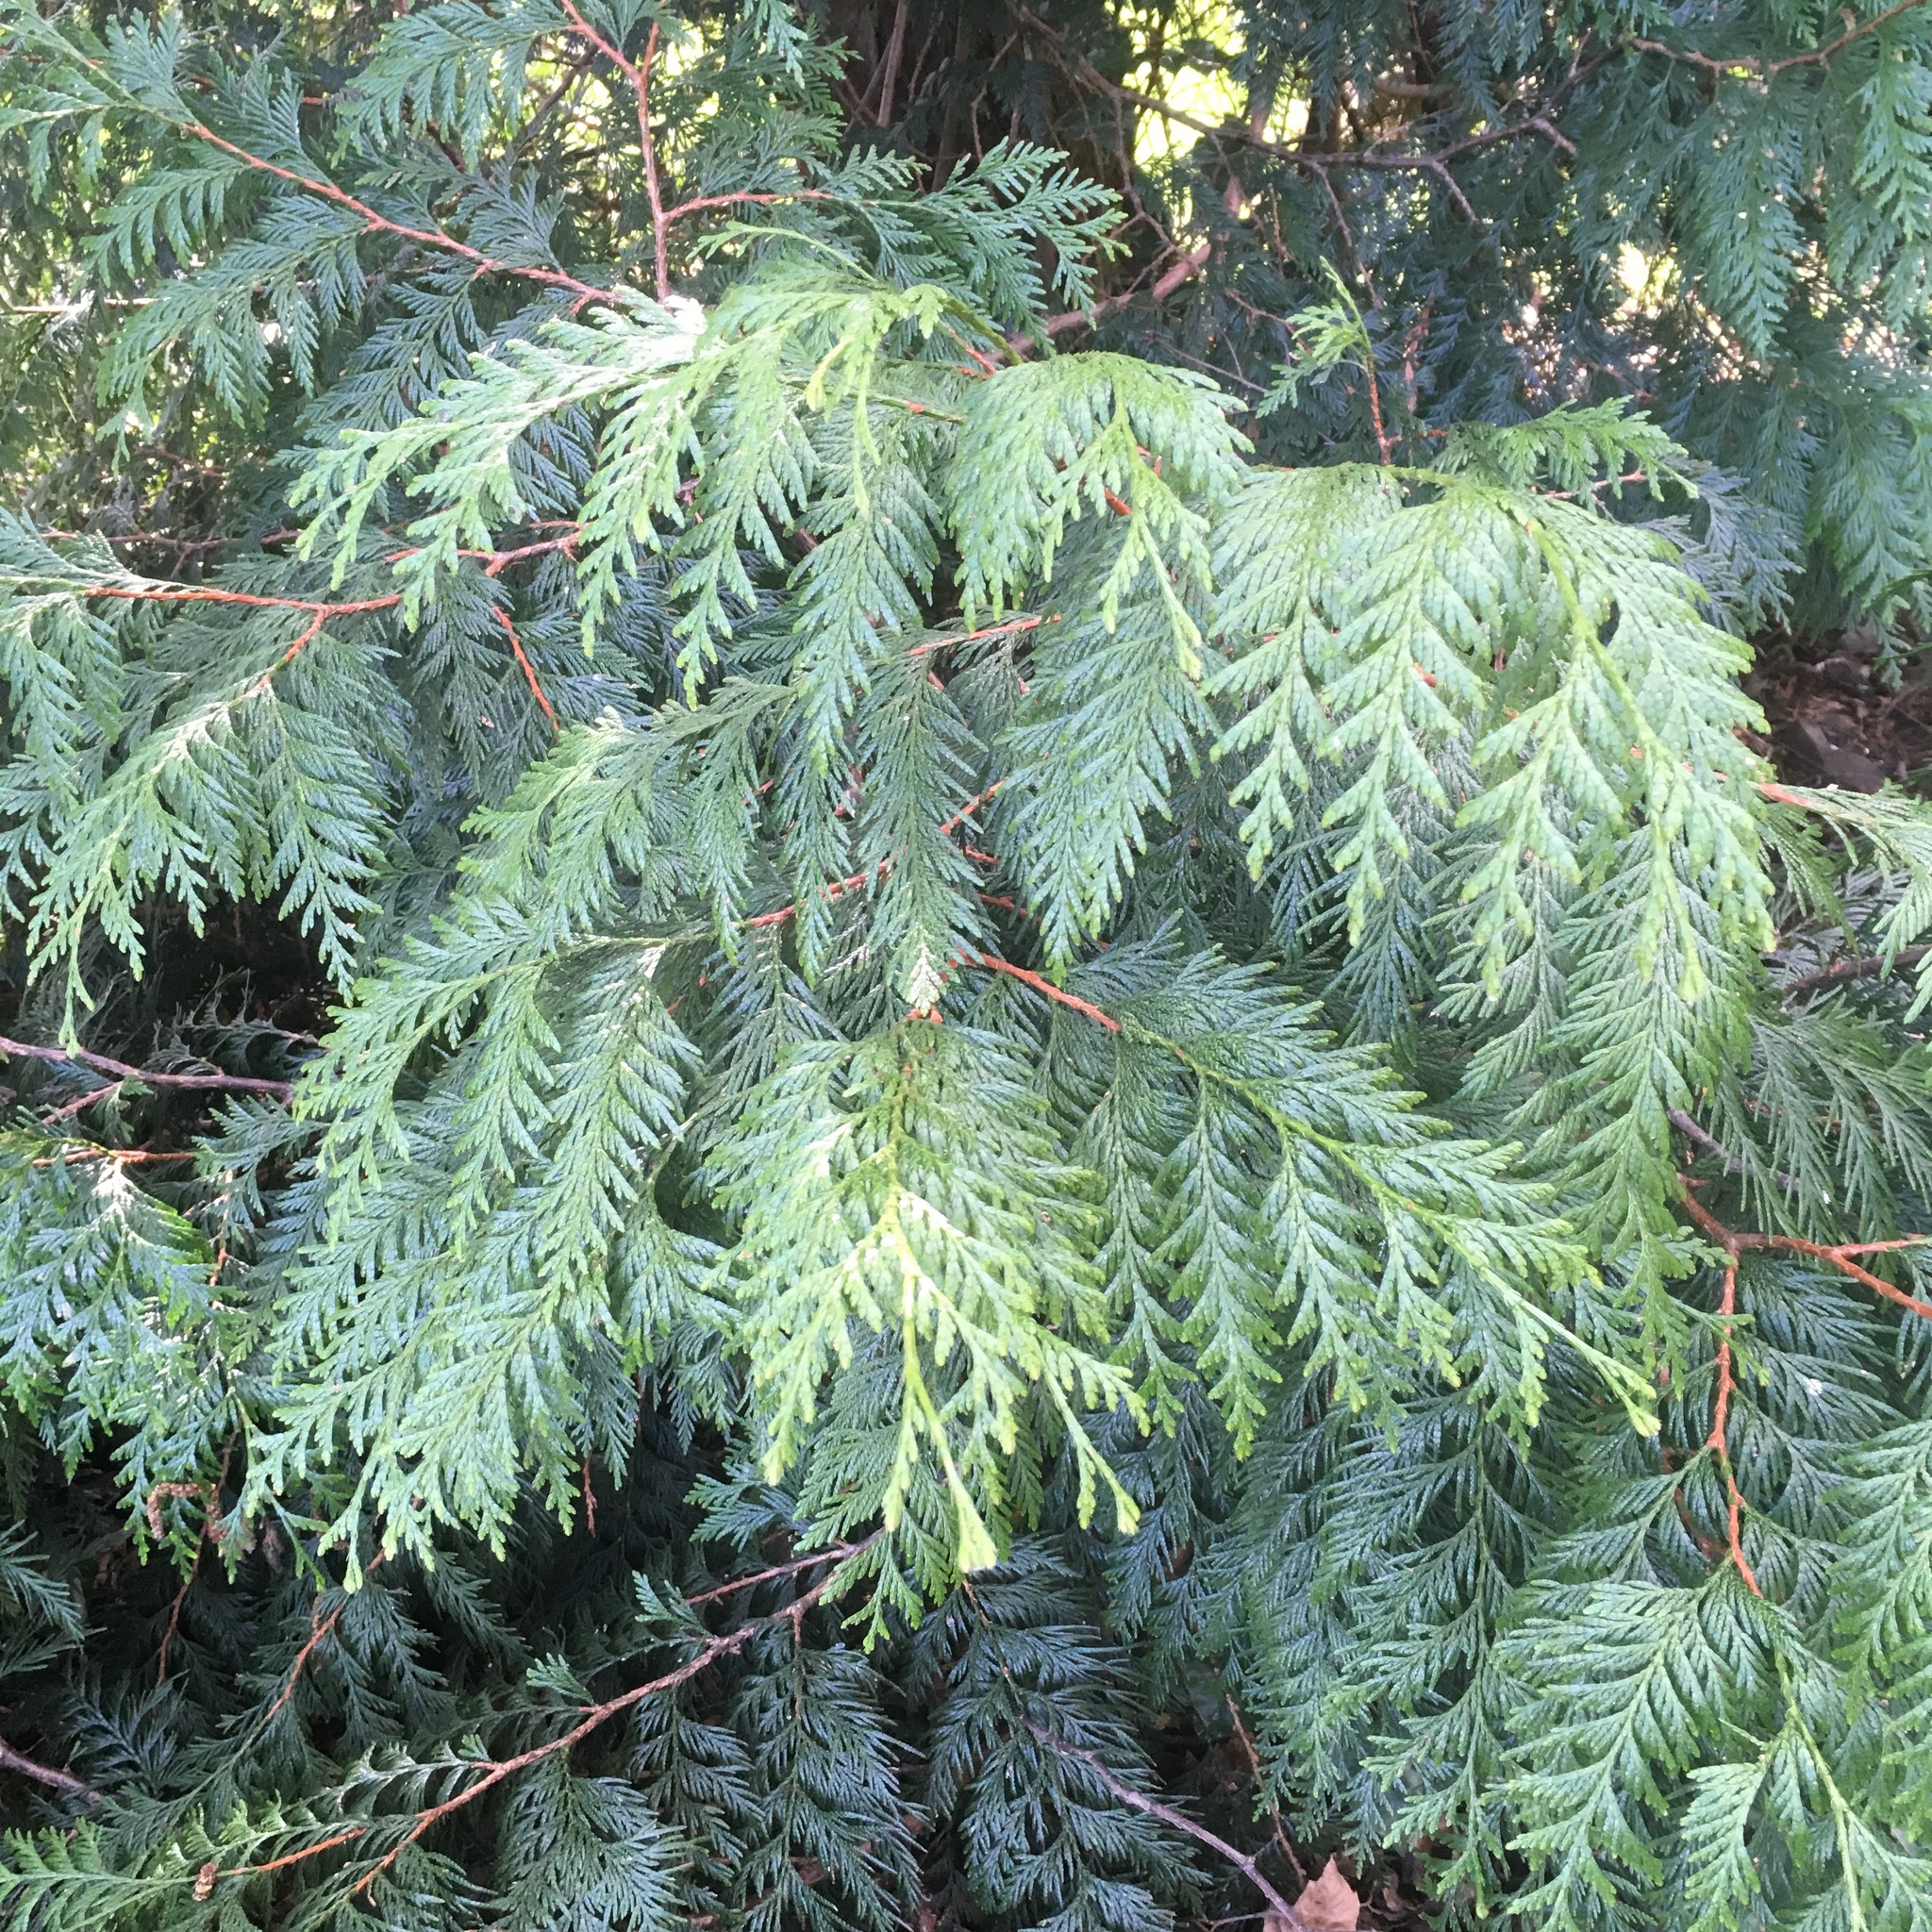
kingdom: Plantae
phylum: Tracheophyta
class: Pinopsida
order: Pinales
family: Cupressaceae
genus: Thuja
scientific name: Thuja plicata
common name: Western red-cedar
